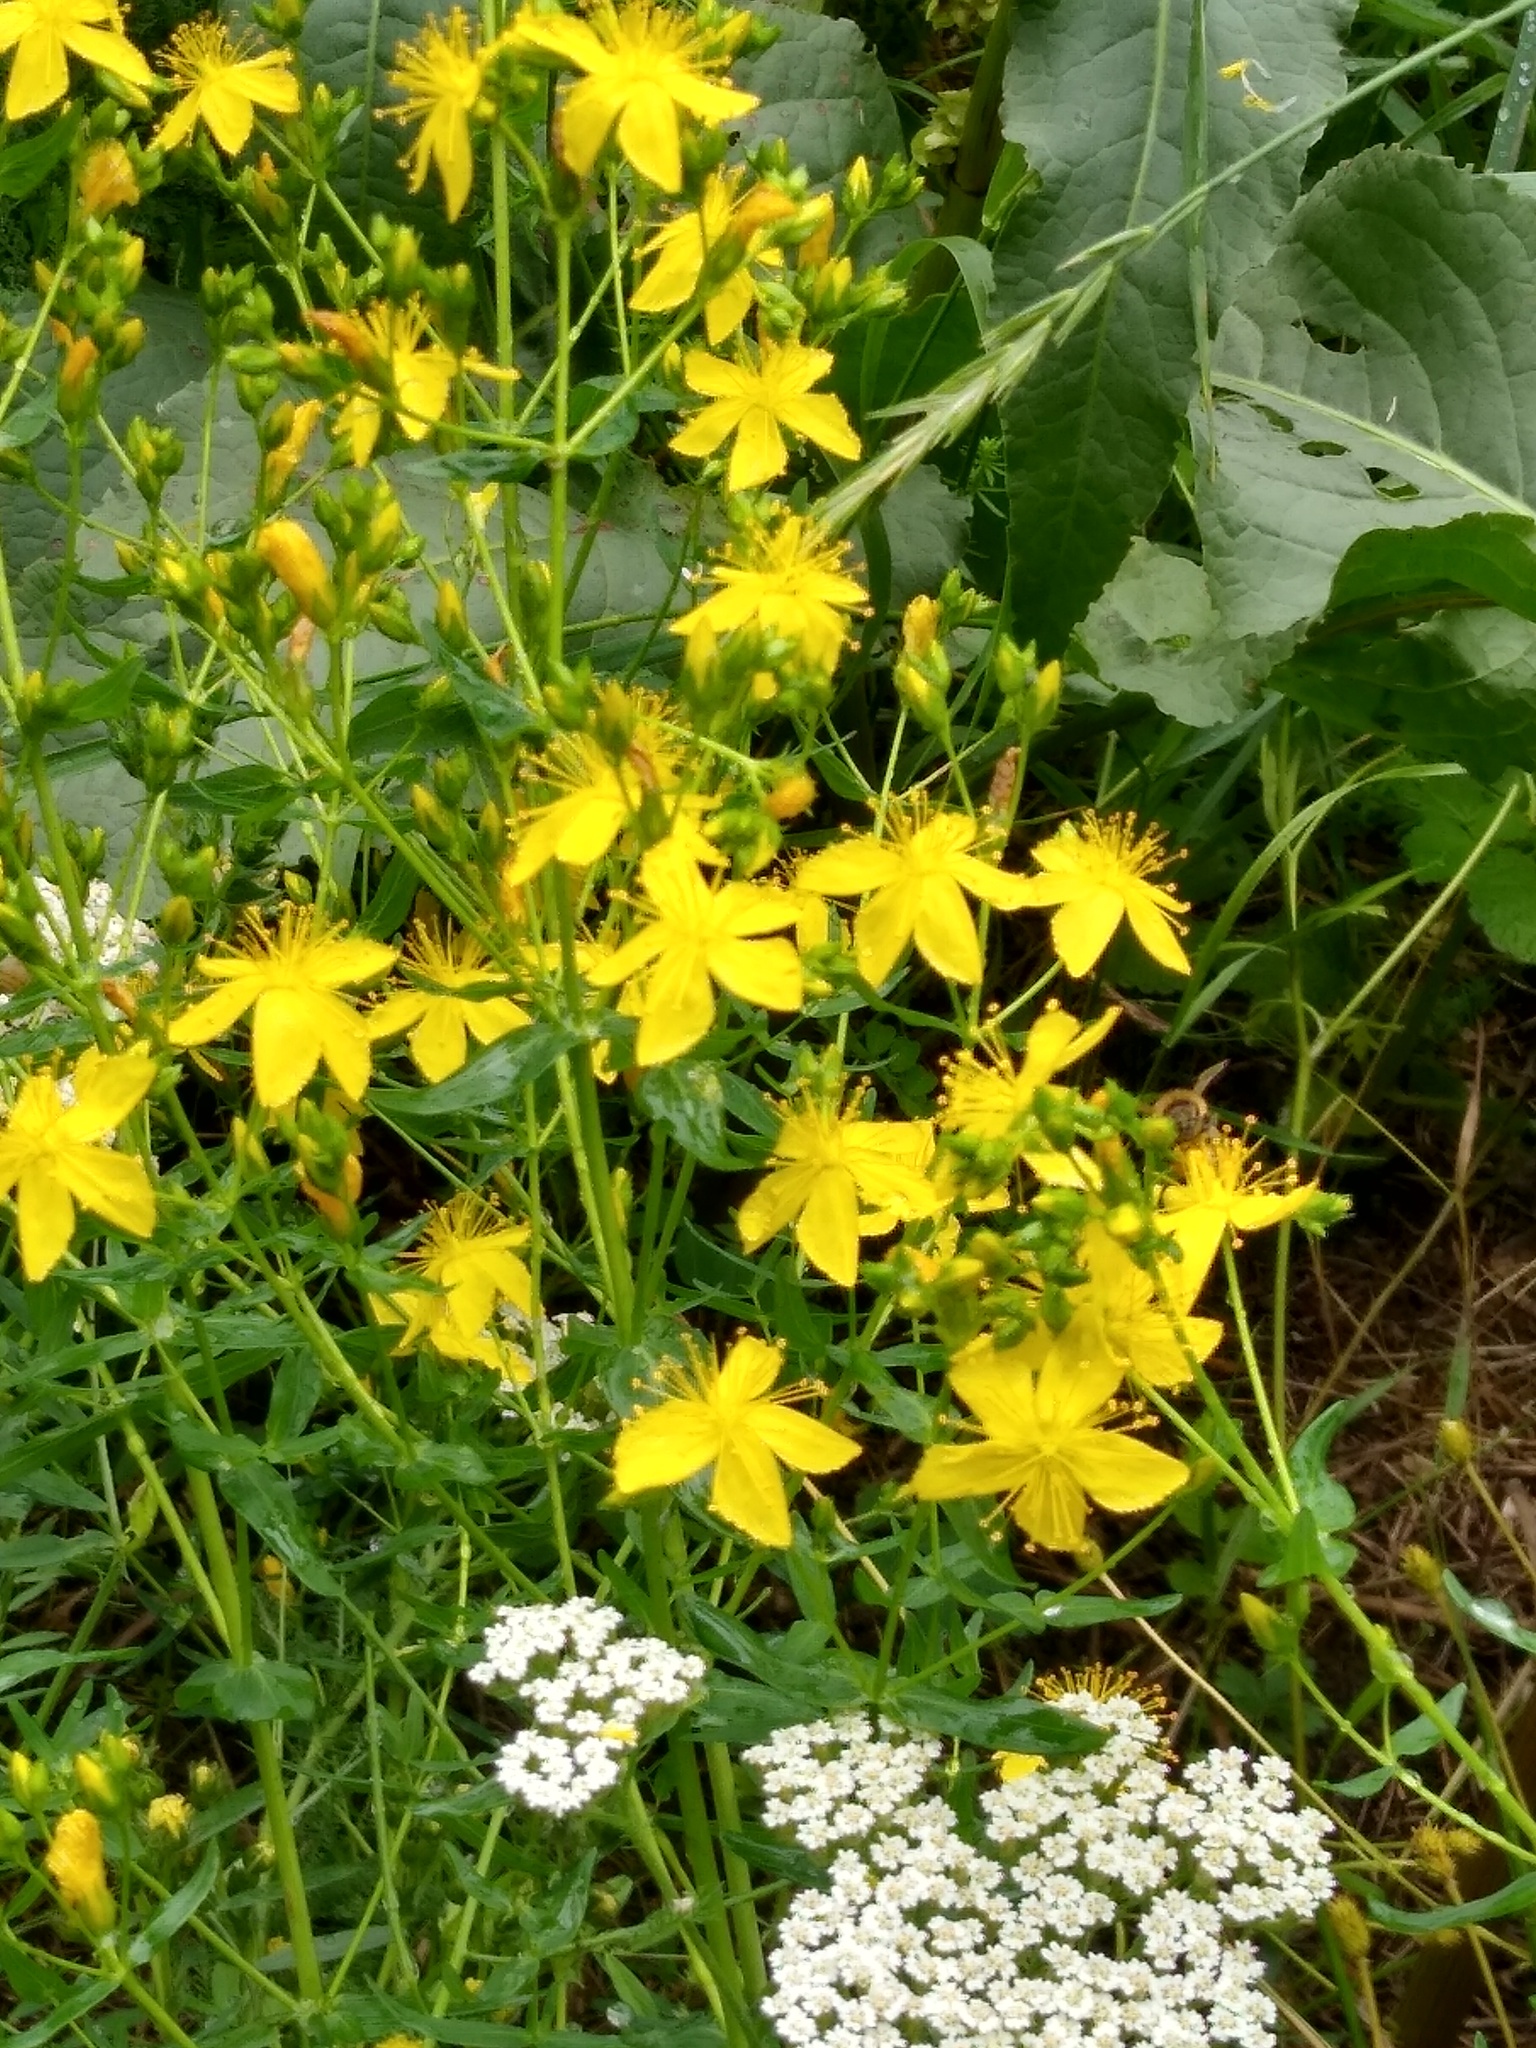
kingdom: Plantae
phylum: Tracheophyta
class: Magnoliopsida
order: Malpighiales
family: Hypericaceae
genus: Hypericum
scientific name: Hypericum elegans
